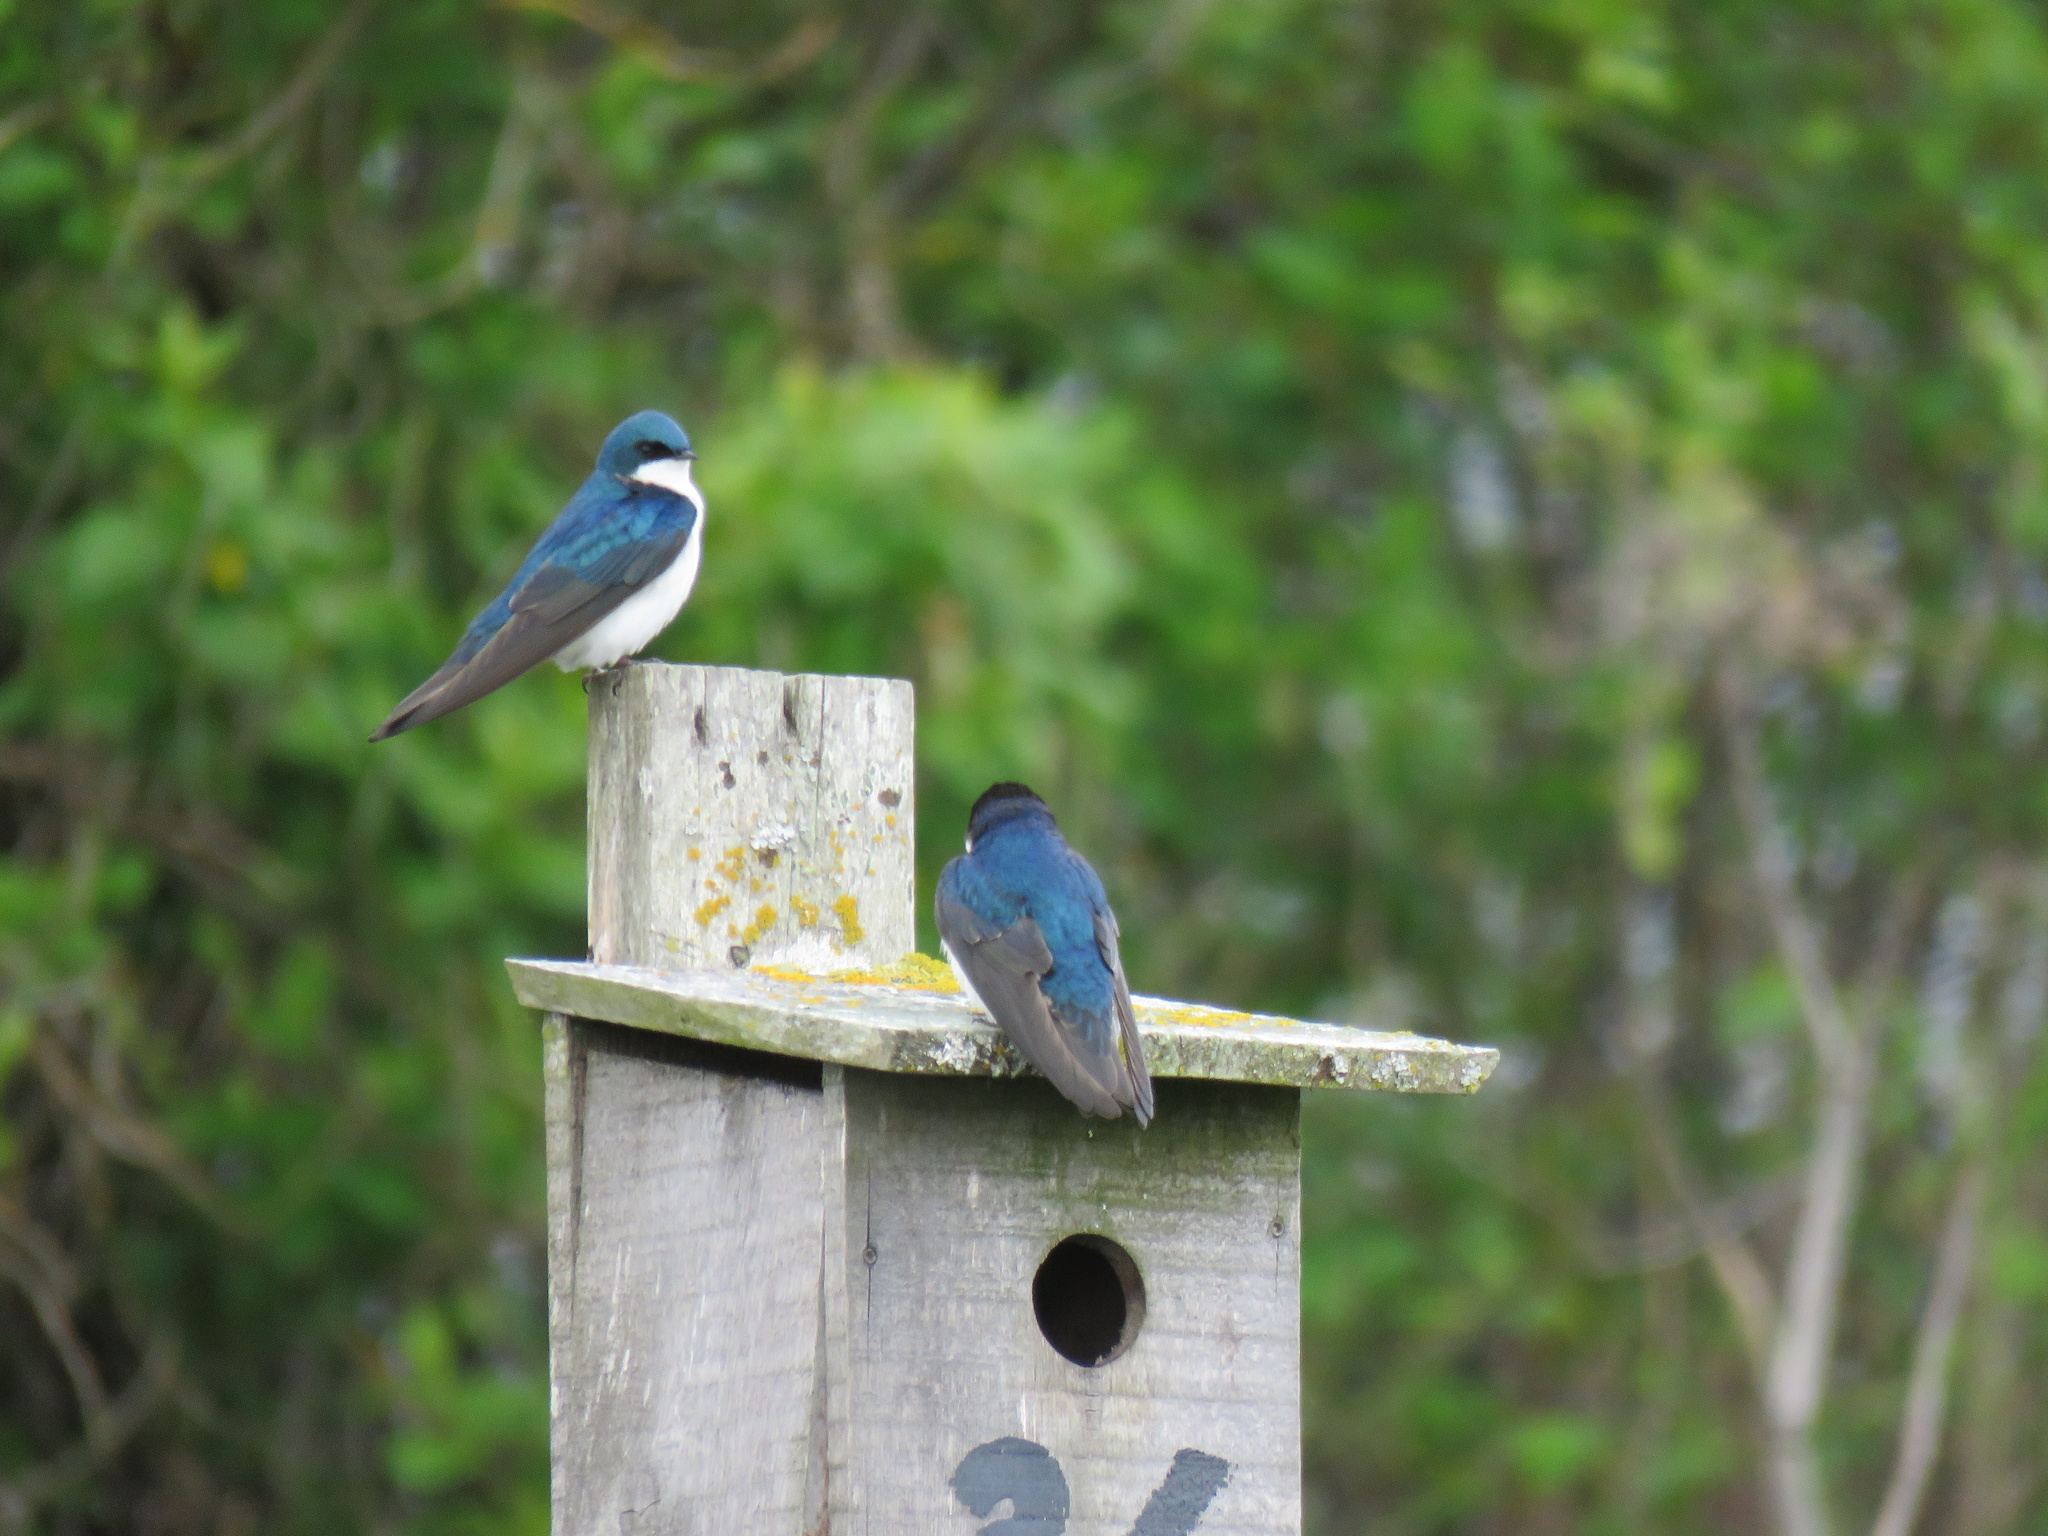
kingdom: Animalia
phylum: Chordata
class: Aves
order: Passeriformes
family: Hirundinidae
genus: Tachycineta
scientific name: Tachycineta bicolor
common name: Tree swallow
